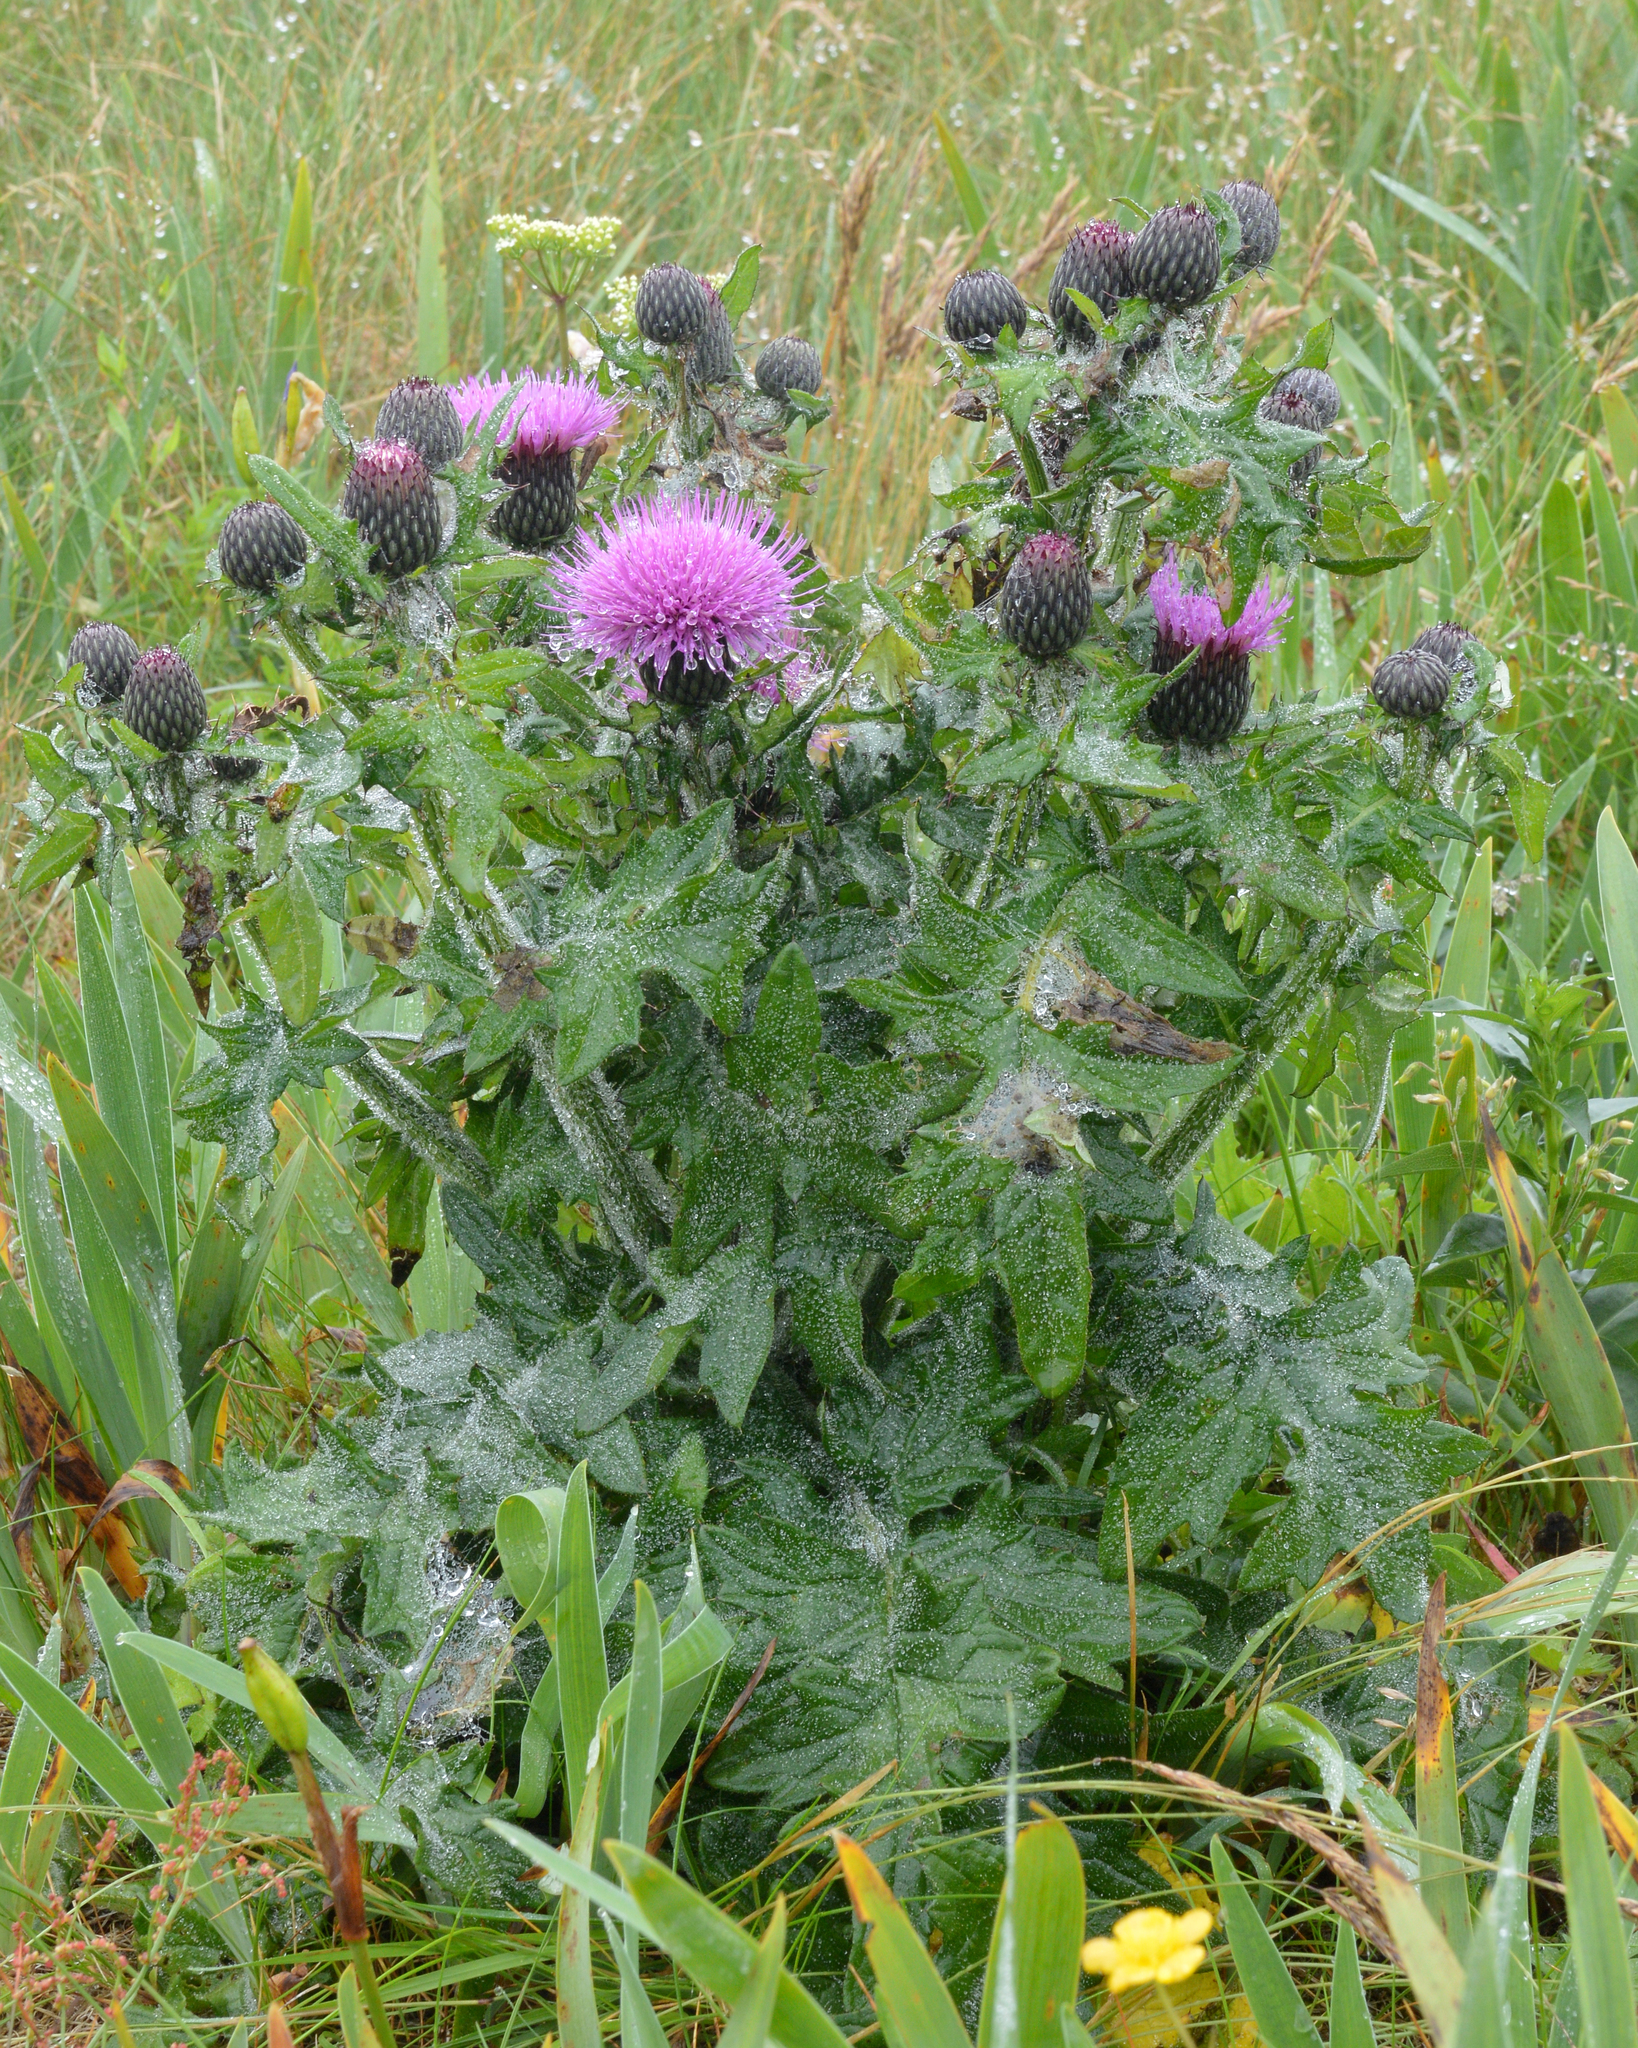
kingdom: Plantae
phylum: Tracheophyta
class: Magnoliopsida
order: Asterales
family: Asteraceae
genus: Cirsium
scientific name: Cirsium muticum
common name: Dunce-nettle
